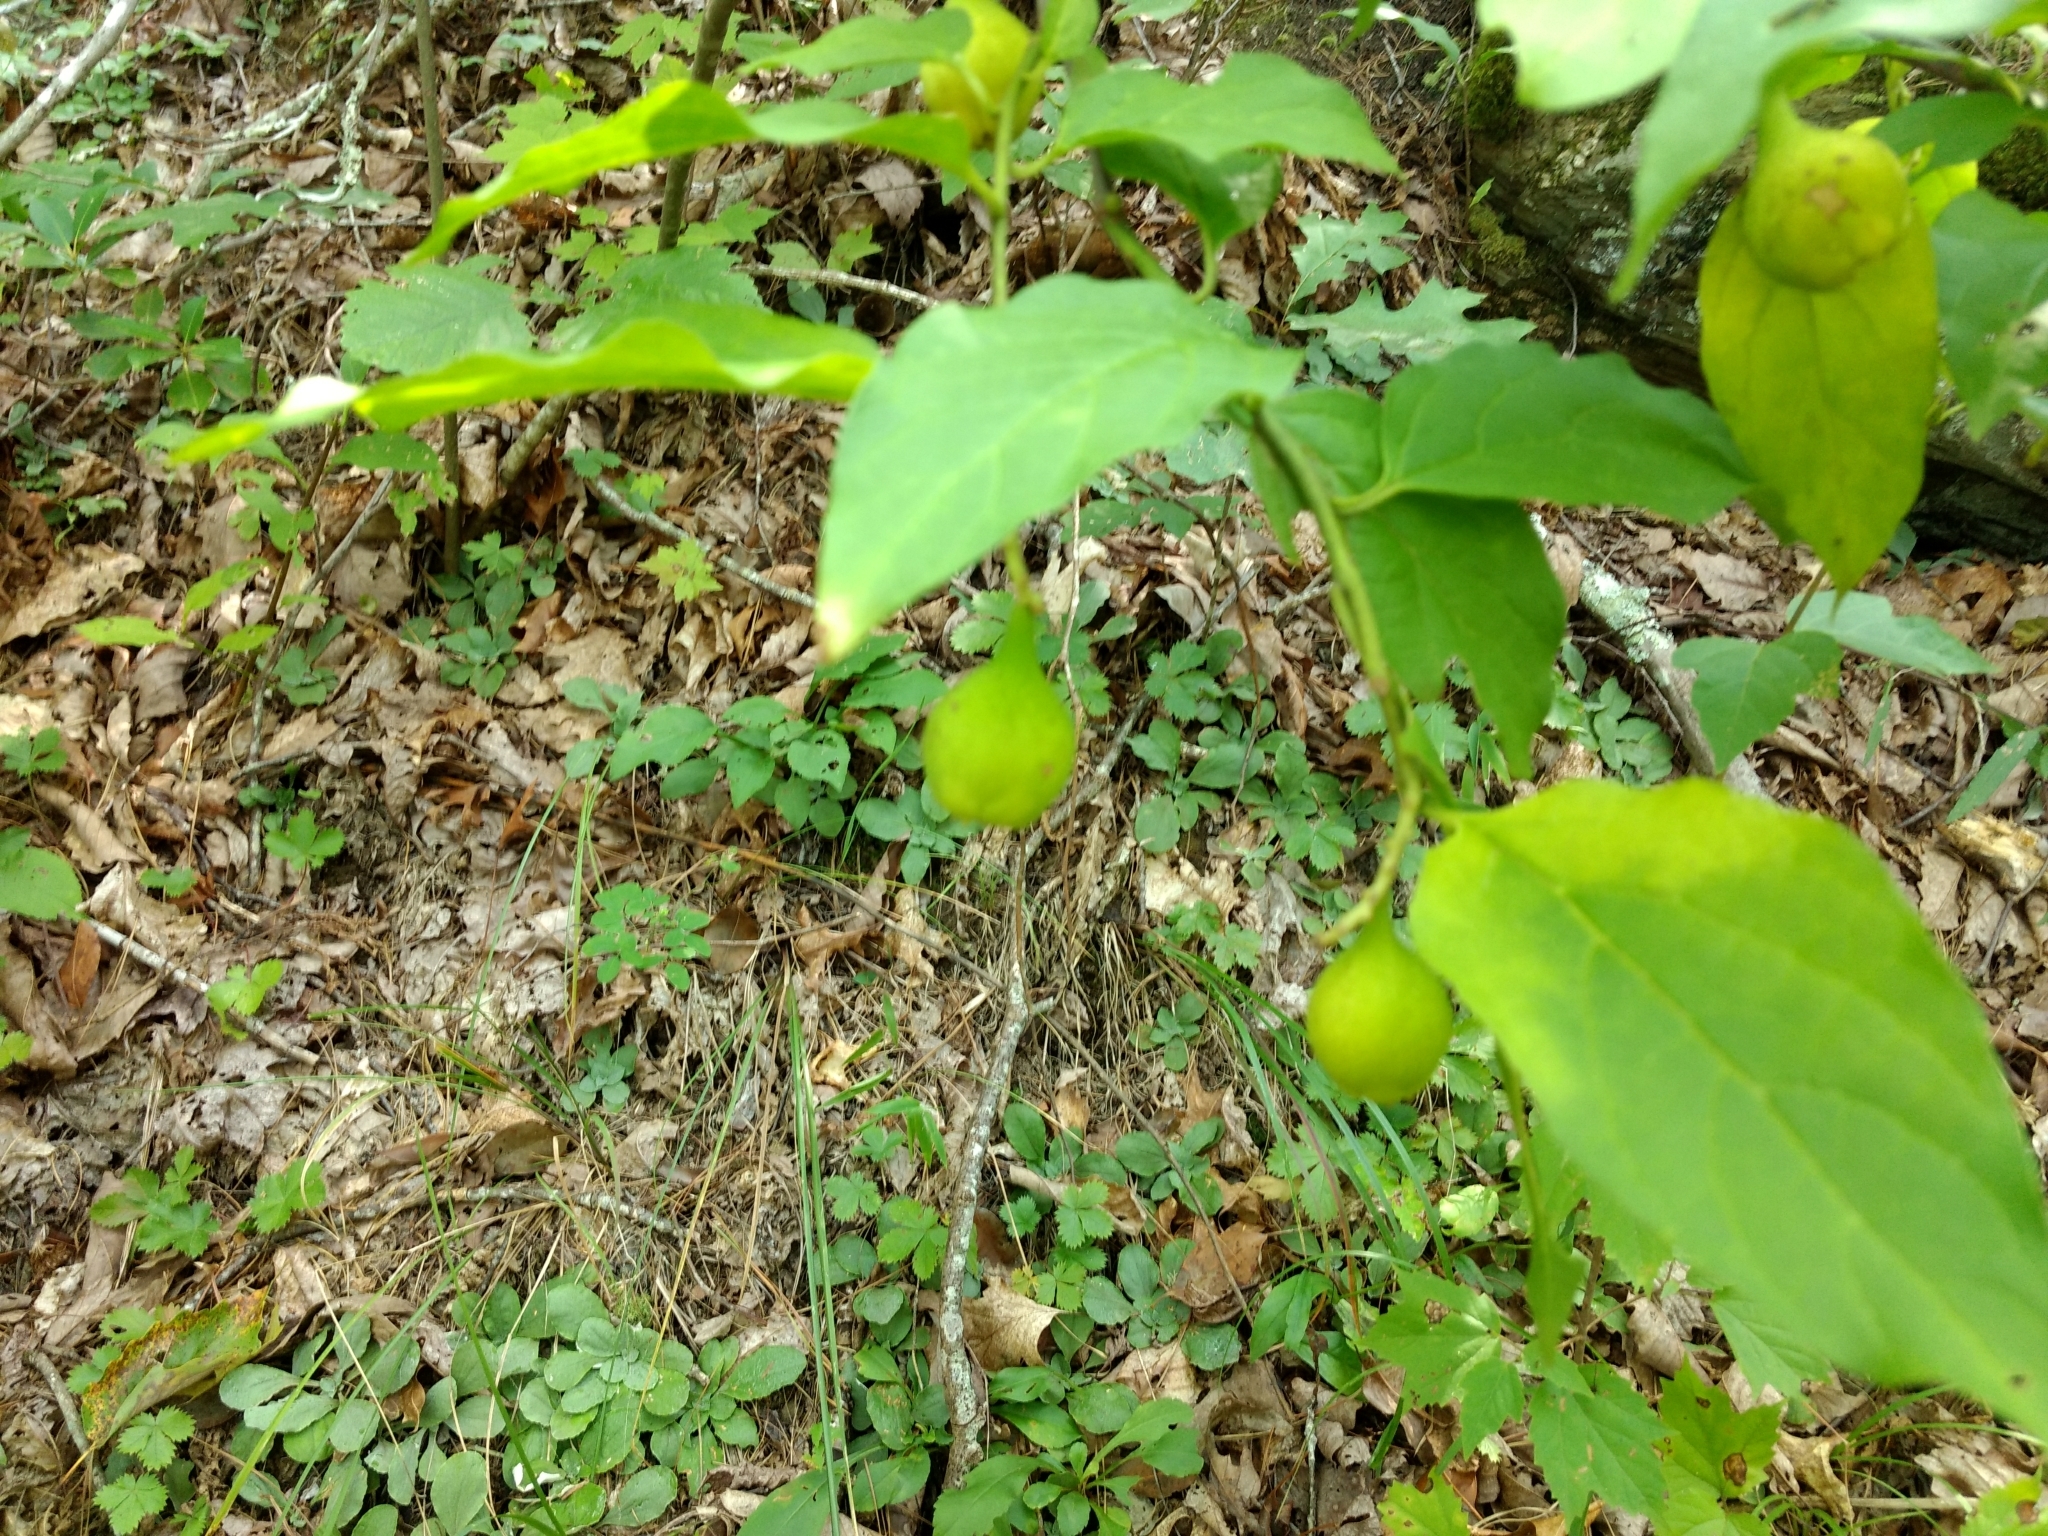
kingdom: Plantae
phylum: Tracheophyta
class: Magnoliopsida
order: Santalales
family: Cervantesiaceae
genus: Pyrularia
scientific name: Pyrularia pubera
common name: Oilnut
